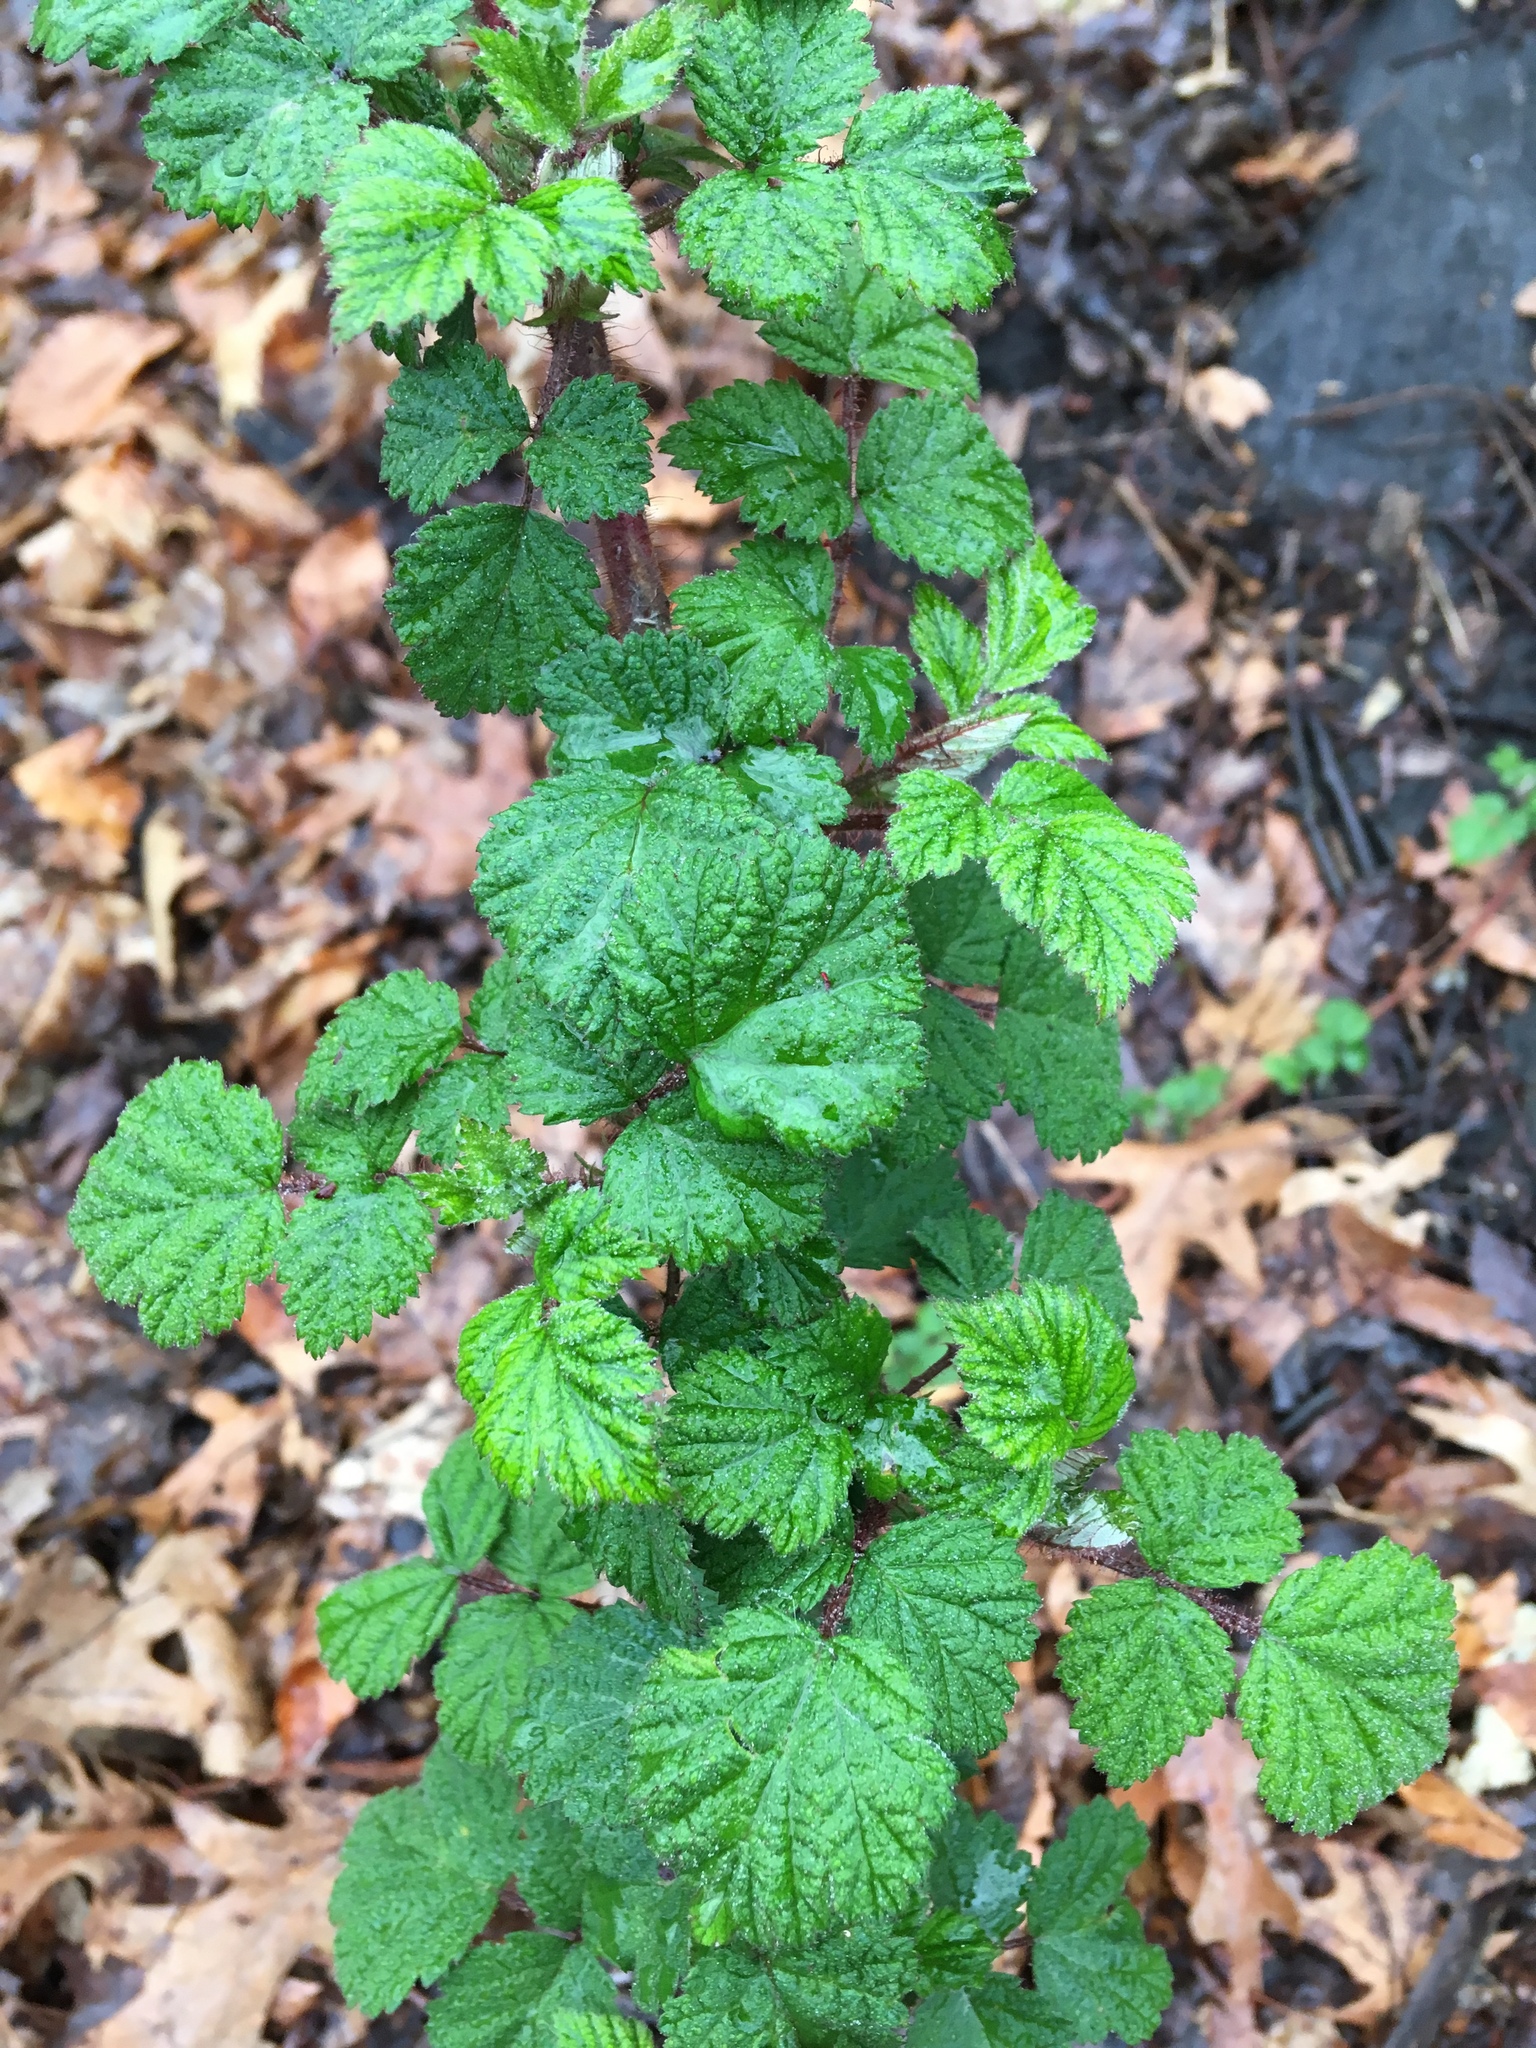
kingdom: Plantae
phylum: Tracheophyta
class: Magnoliopsida
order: Rosales
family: Rosaceae
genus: Rubus
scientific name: Rubus phoenicolasius
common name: Japanese wineberry
